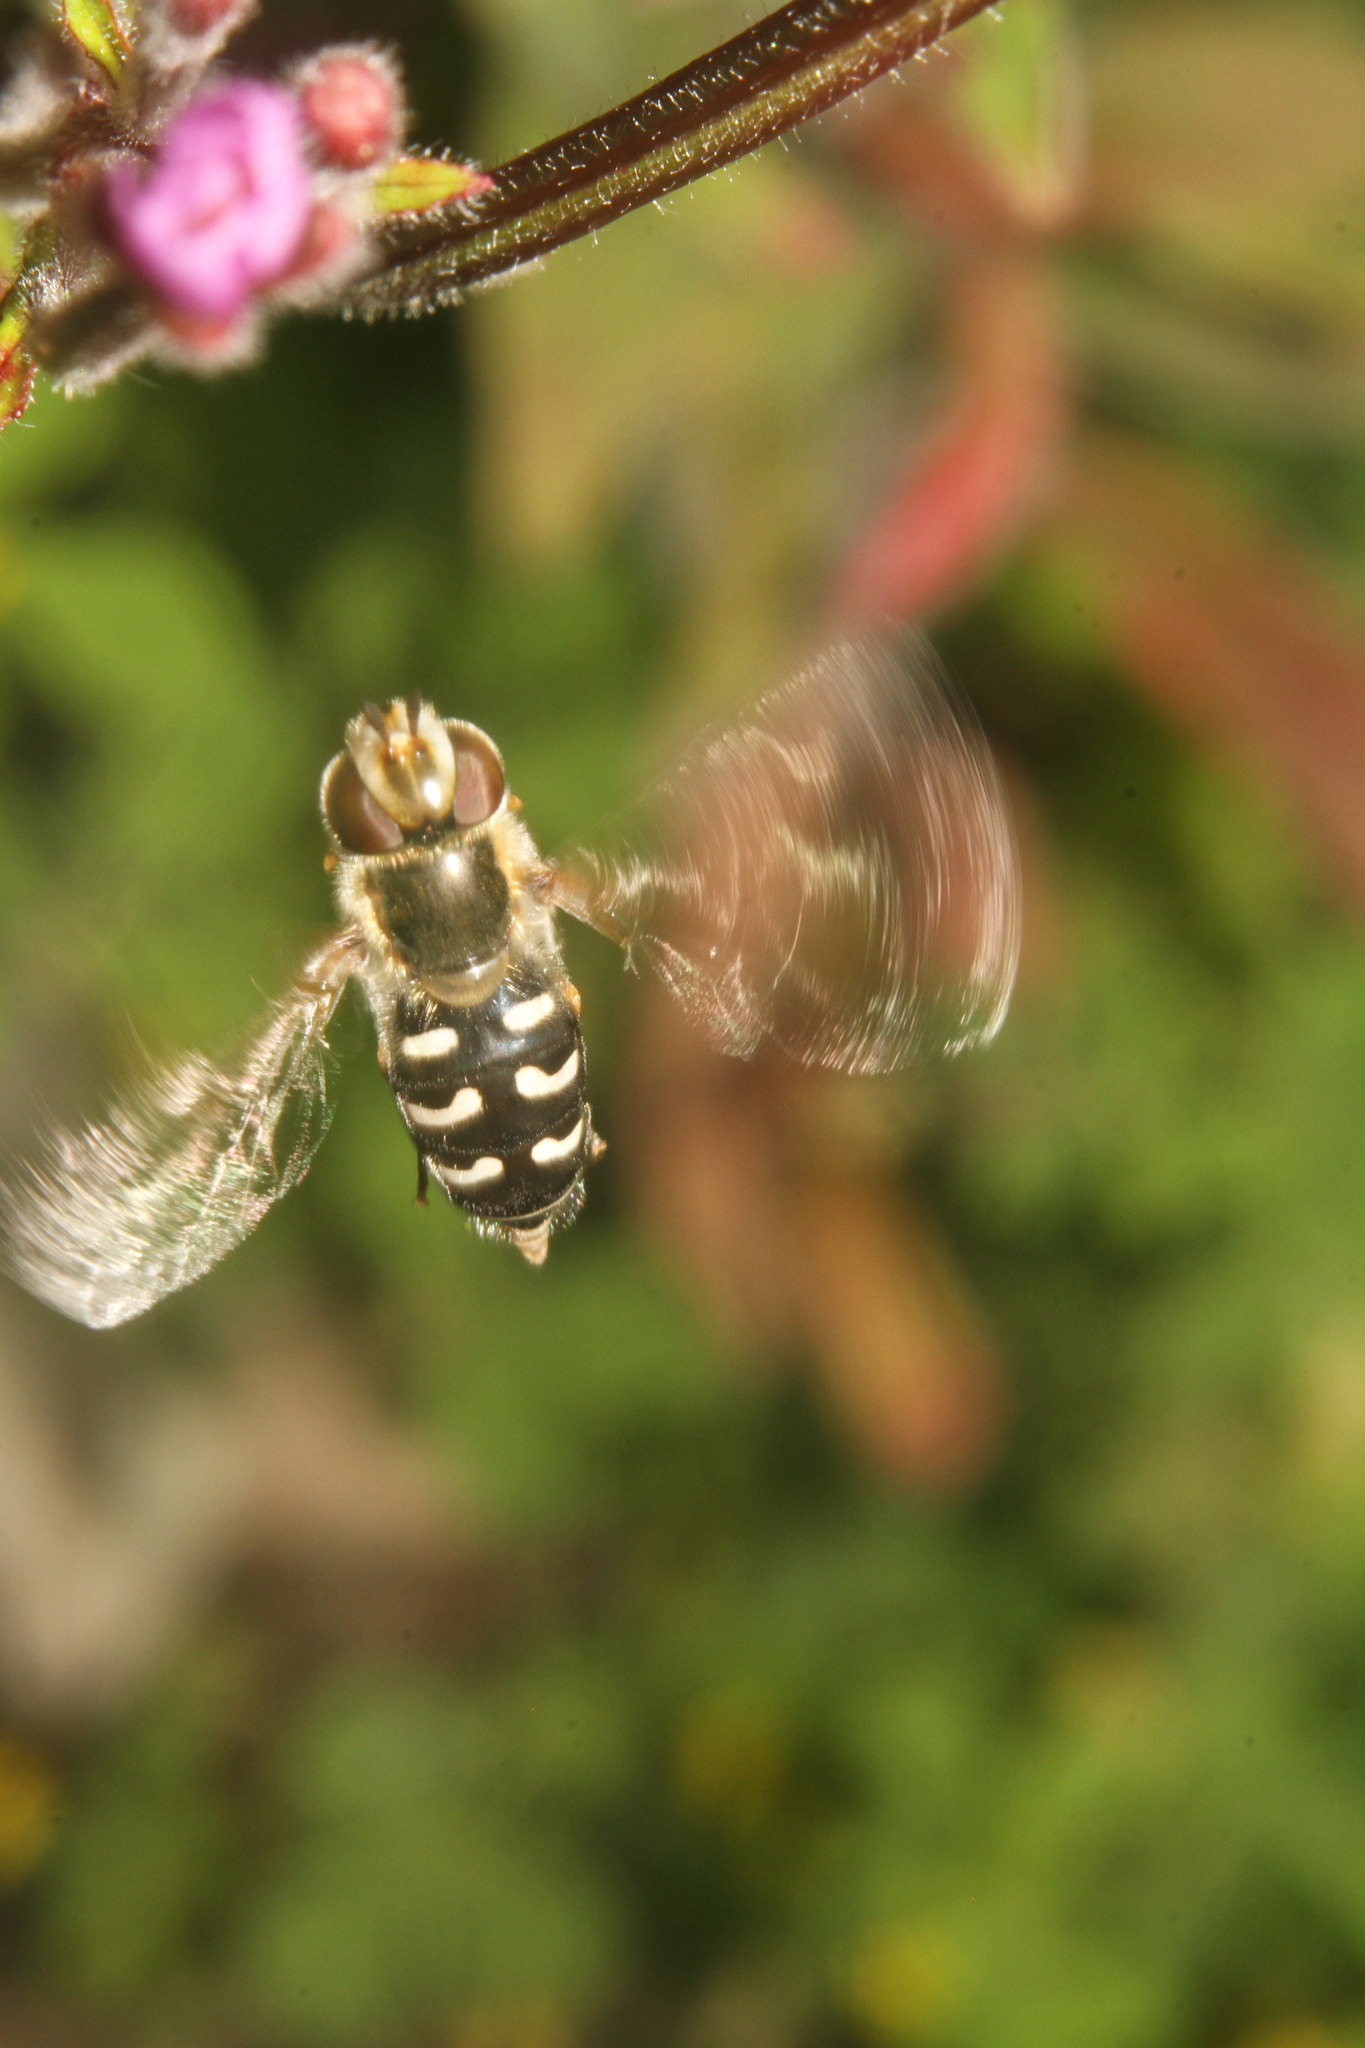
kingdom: Animalia
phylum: Arthropoda
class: Insecta
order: Diptera
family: Syrphidae
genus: Scaeva
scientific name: Scaeva pyrastri
